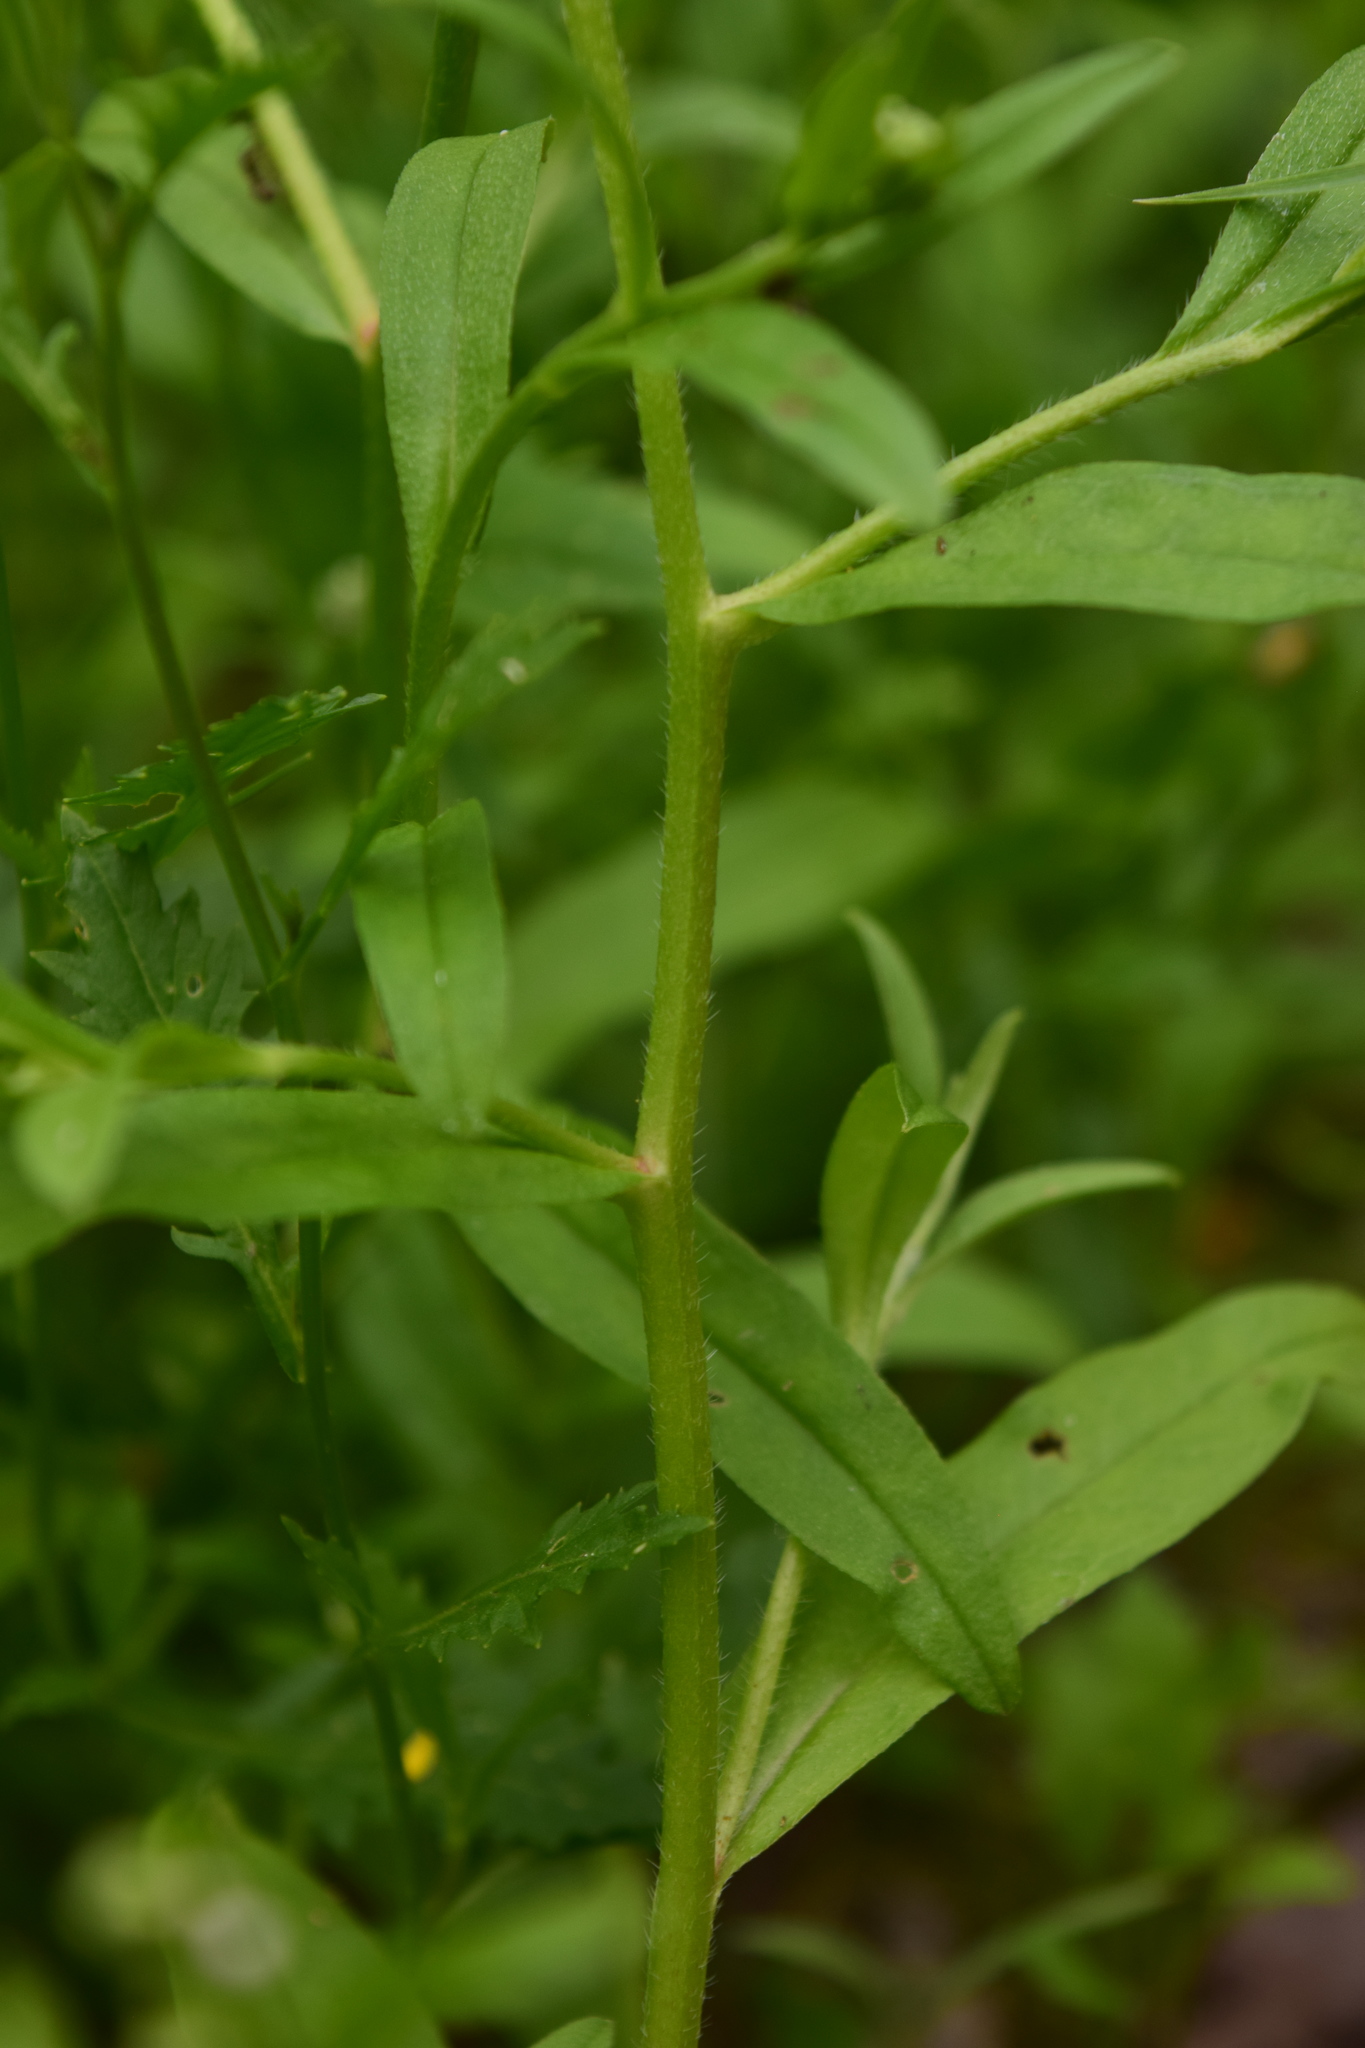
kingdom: Plantae
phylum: Tracheophyta
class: Magnoliopsida
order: Boraginales
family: Boraginaceae
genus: Myosotis
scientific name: Myosotis scorpioides
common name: Water forget-me-not
